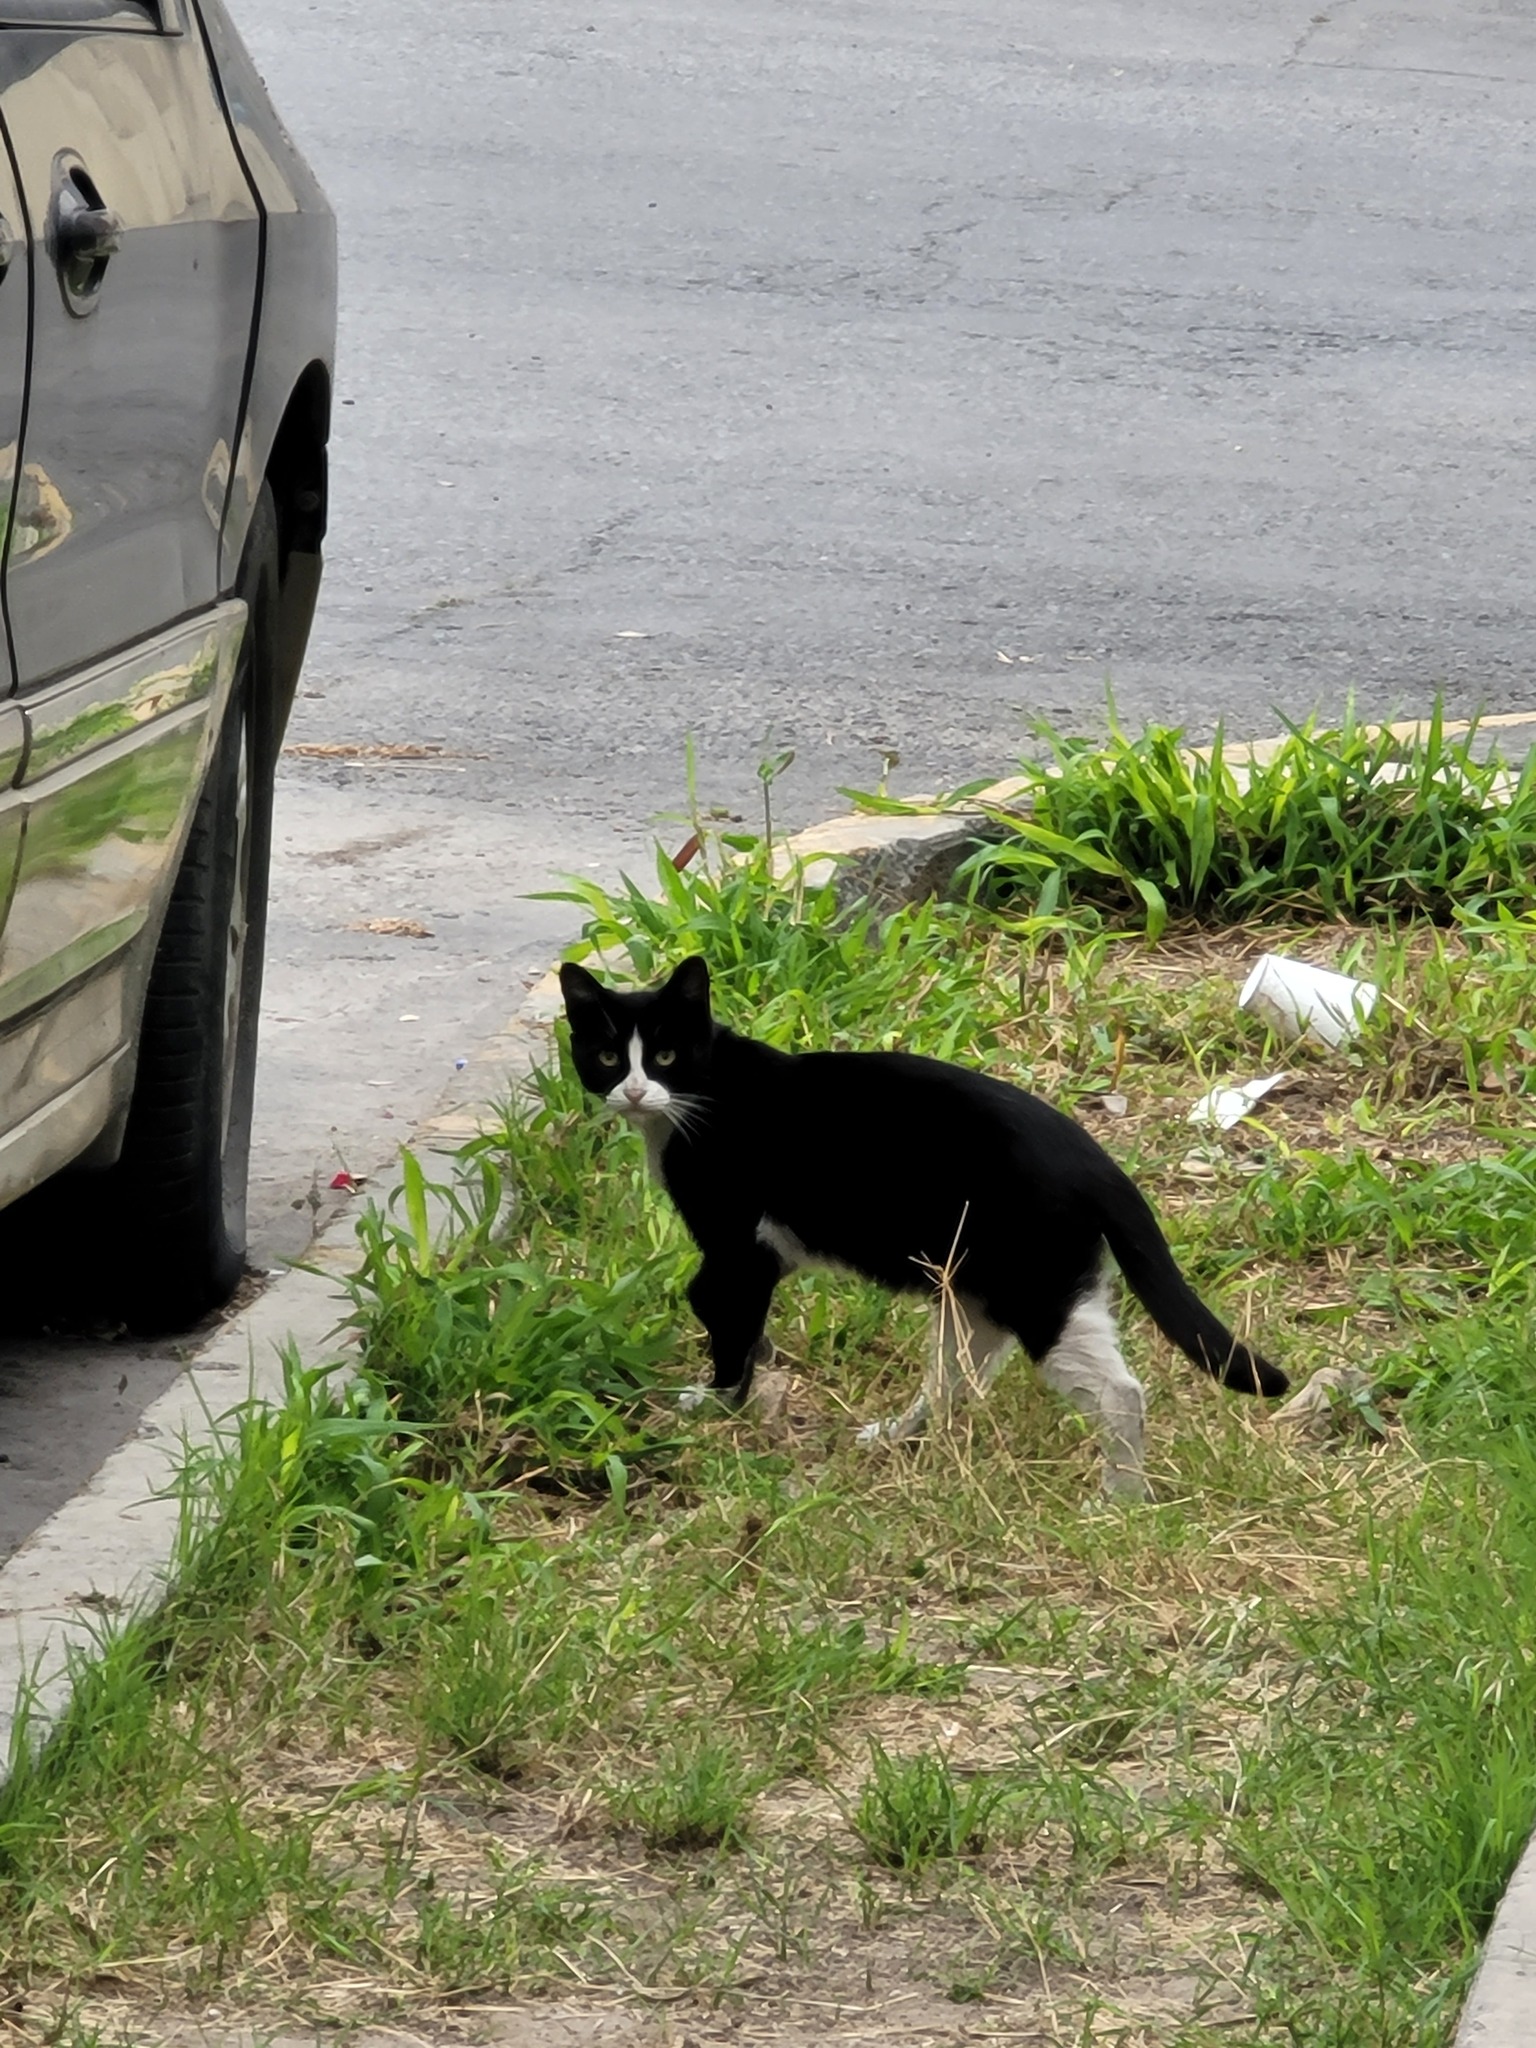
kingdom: Animalia
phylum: Chordata
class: Mammalia
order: Carnivora
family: Felidae
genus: Felis
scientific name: Felis catus
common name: Domestic cat
